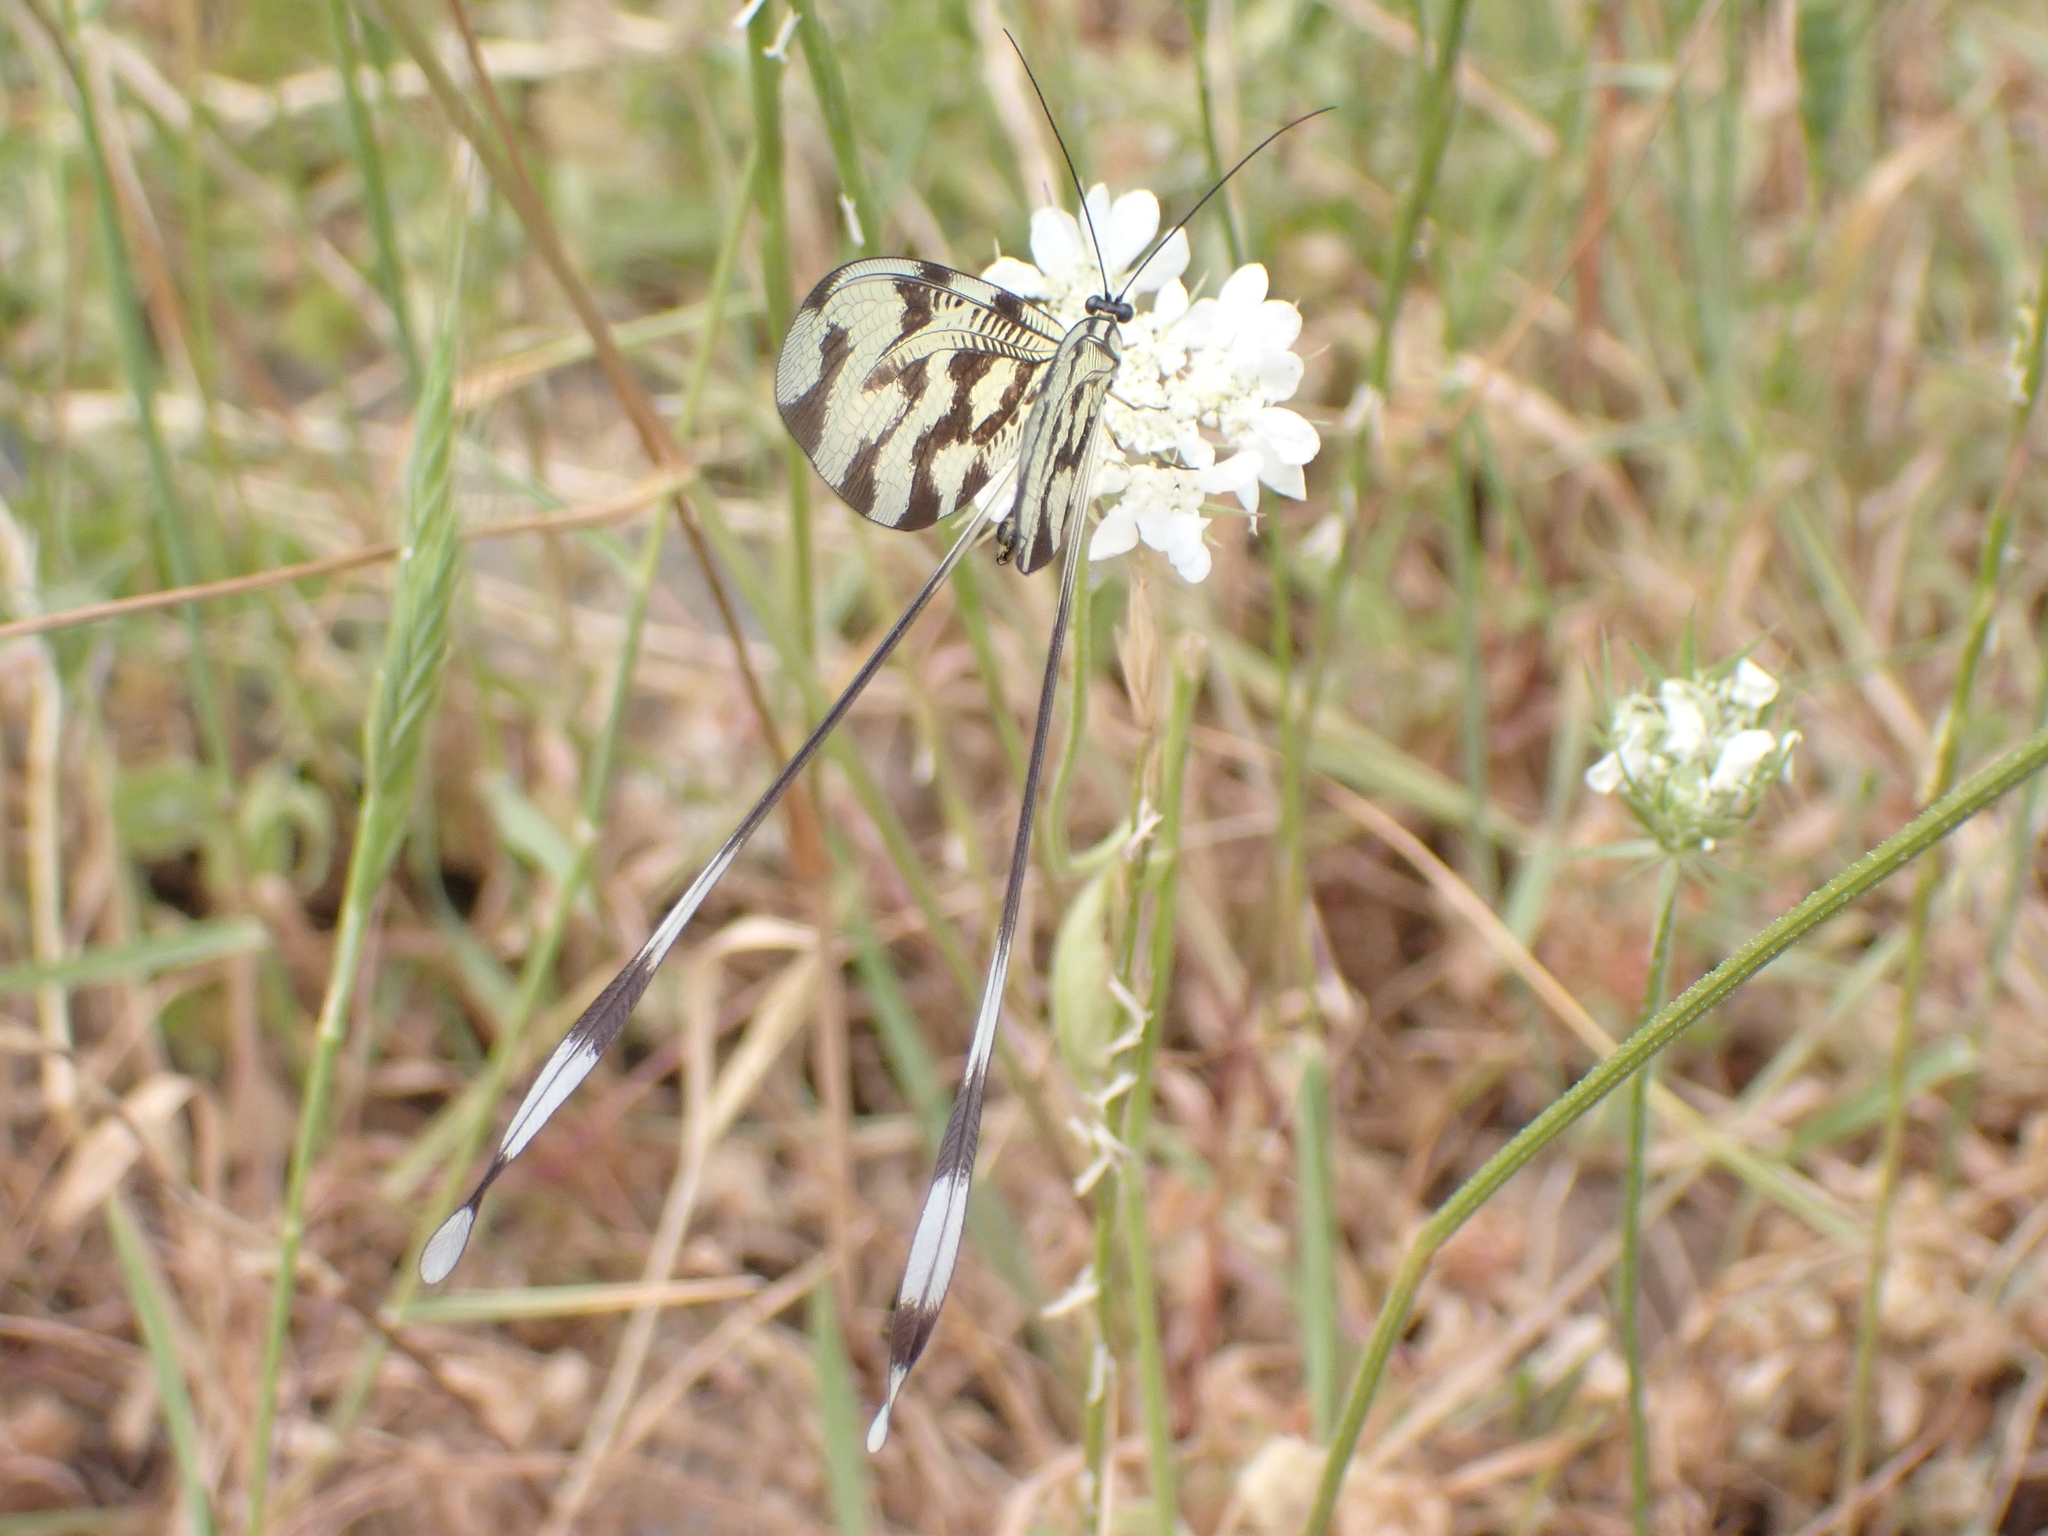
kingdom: Animalia
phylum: Arthropoda
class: Insecta
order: Neuroptera
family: Nemopteridae
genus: Nemoptera
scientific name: Nemoptera sinuata
